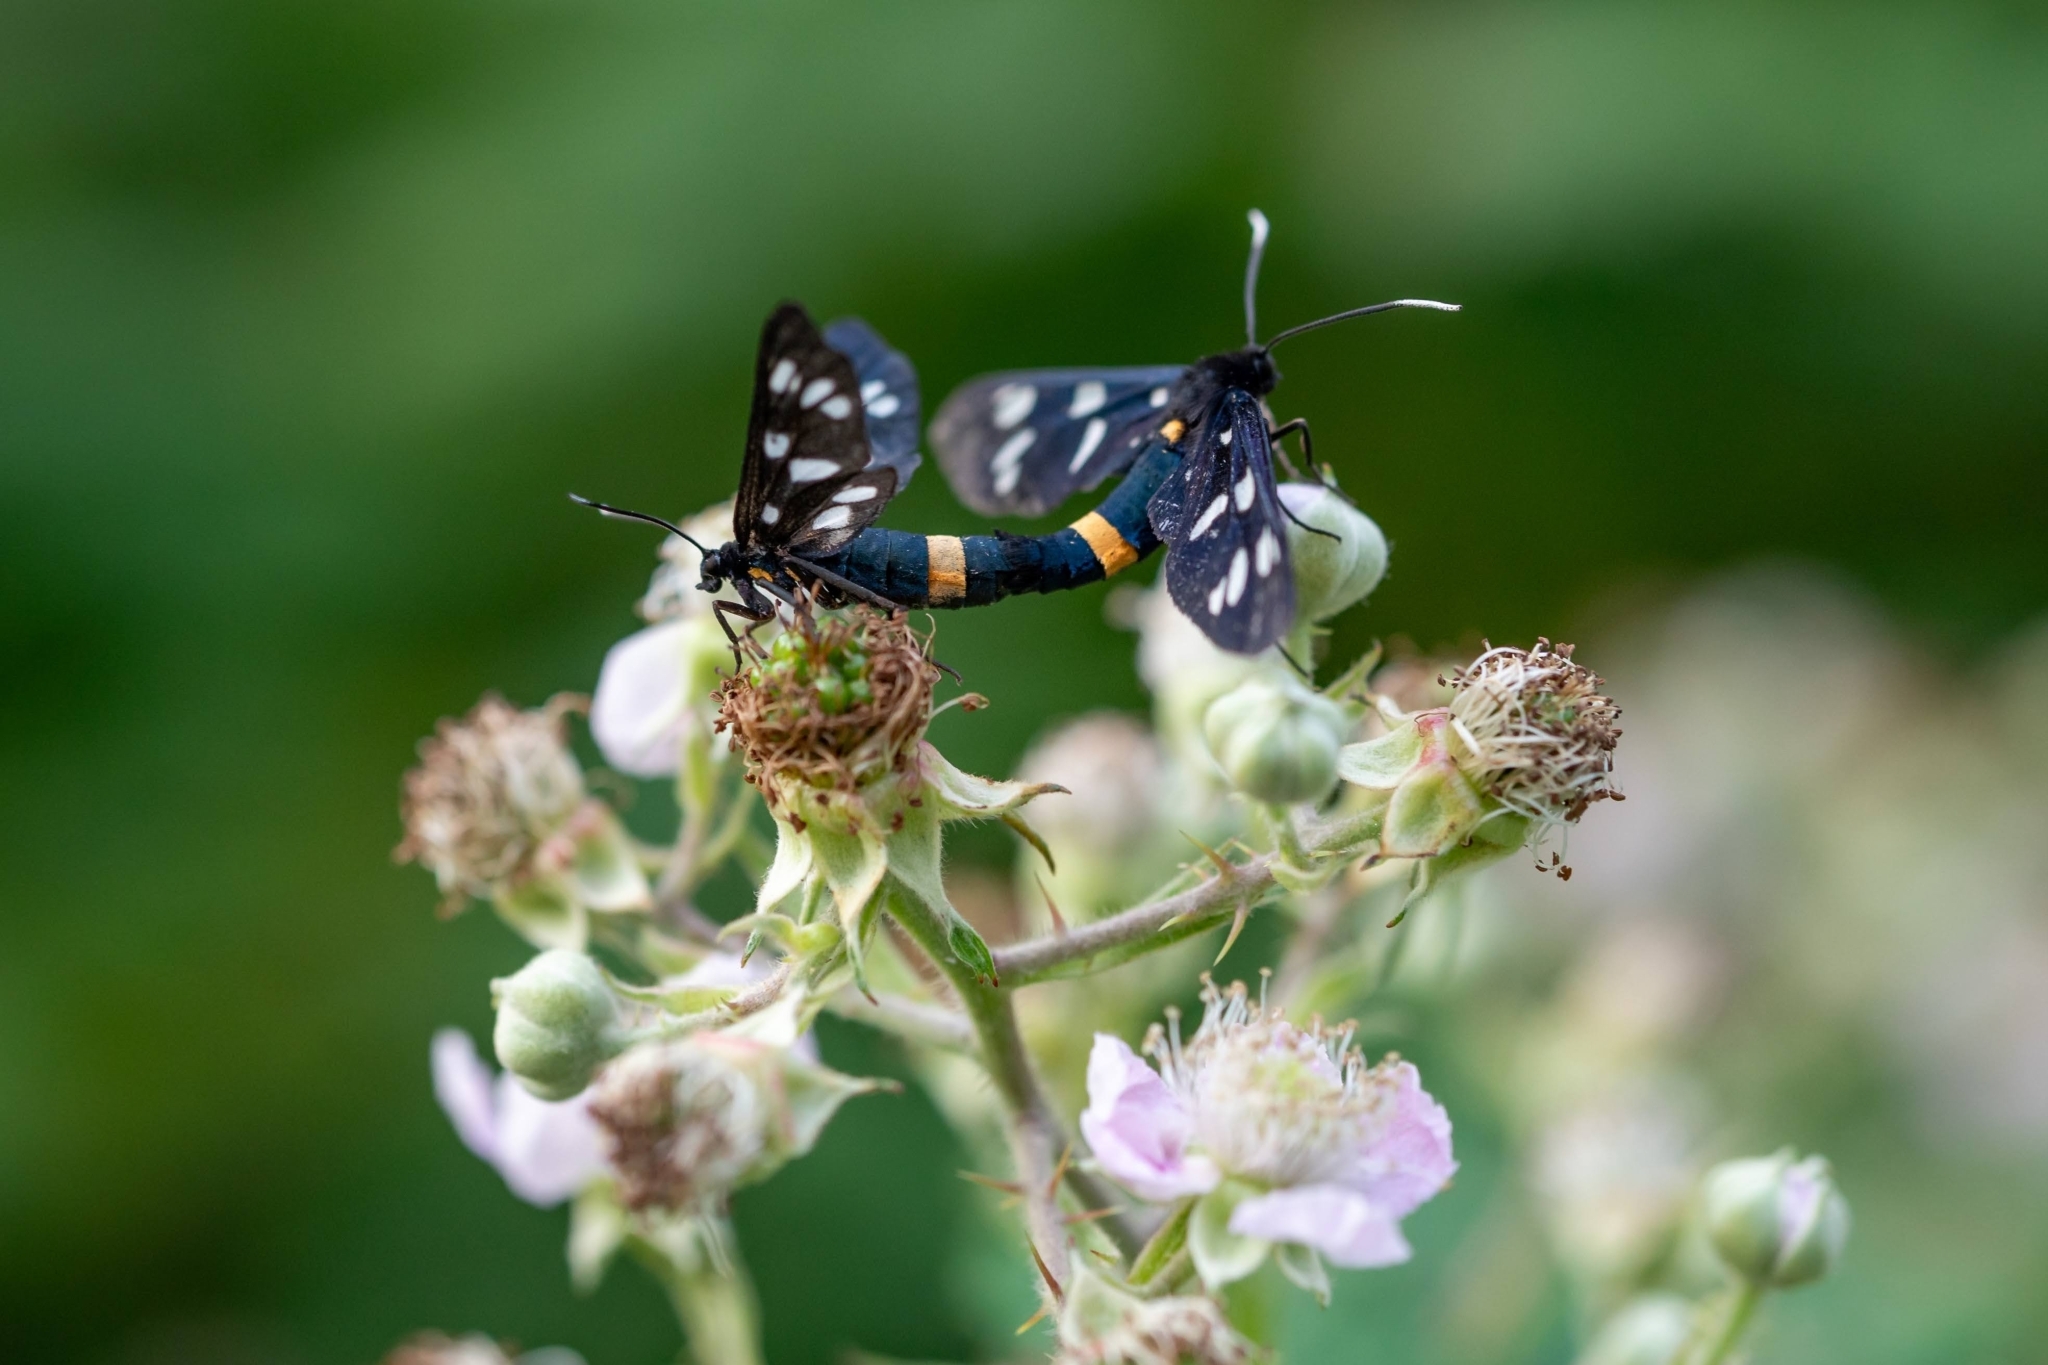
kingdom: Animalia
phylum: Arthropoda
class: Insecta
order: Lepidoptera
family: Erebidae
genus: Amata
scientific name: Amata phegea
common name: Nine-spotted
